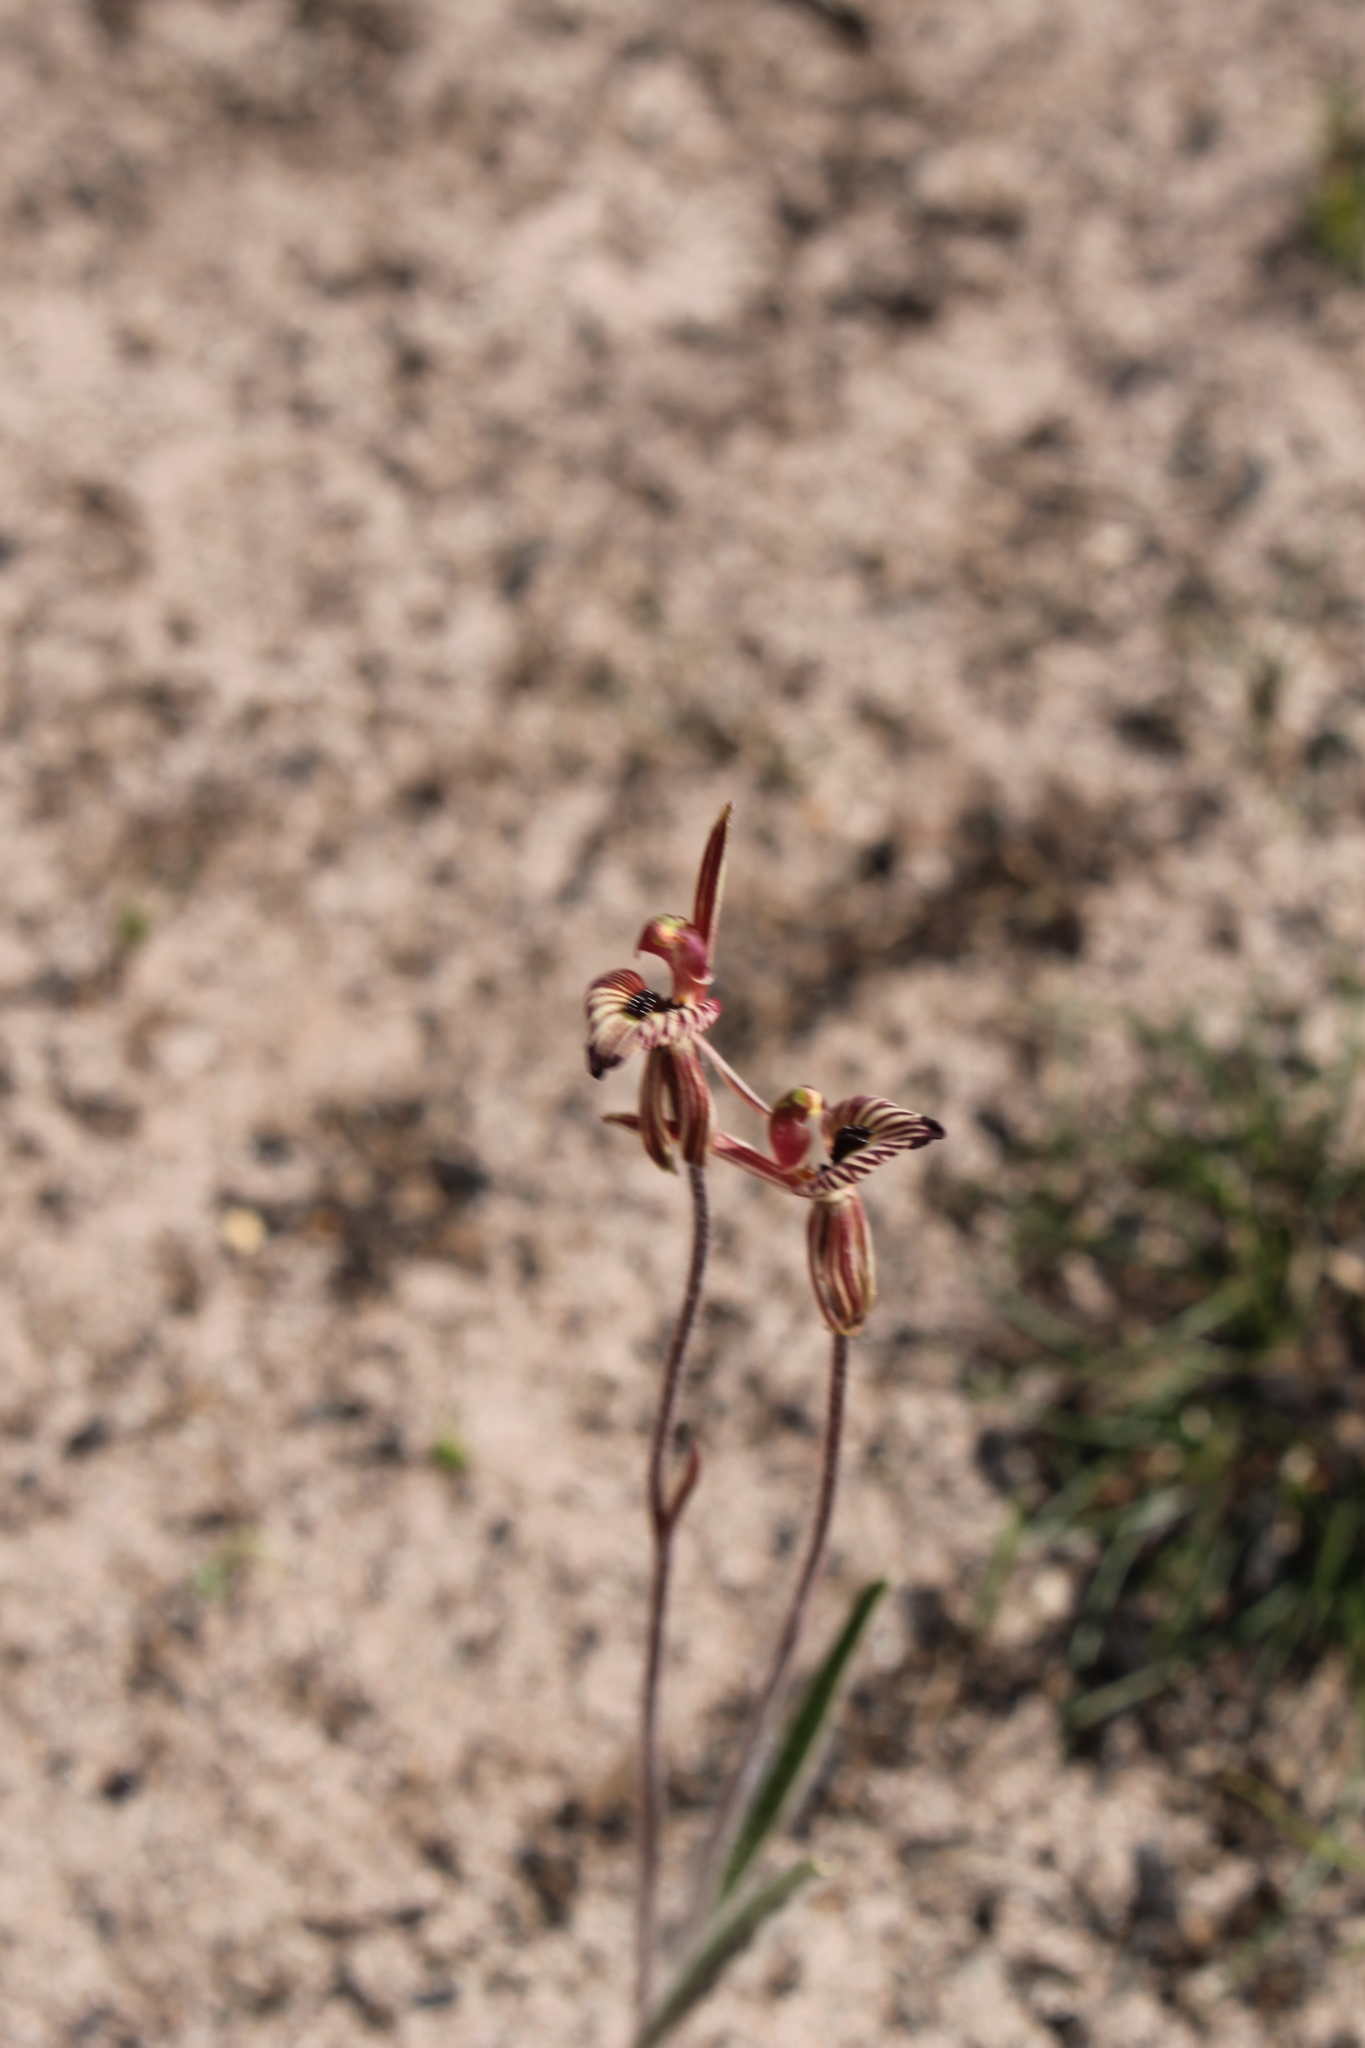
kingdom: Plantae
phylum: Tracheophyta
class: Liliopsida
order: Asparagales
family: Orchidaceae
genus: Caladenia
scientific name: Caladenia cairnsiana
